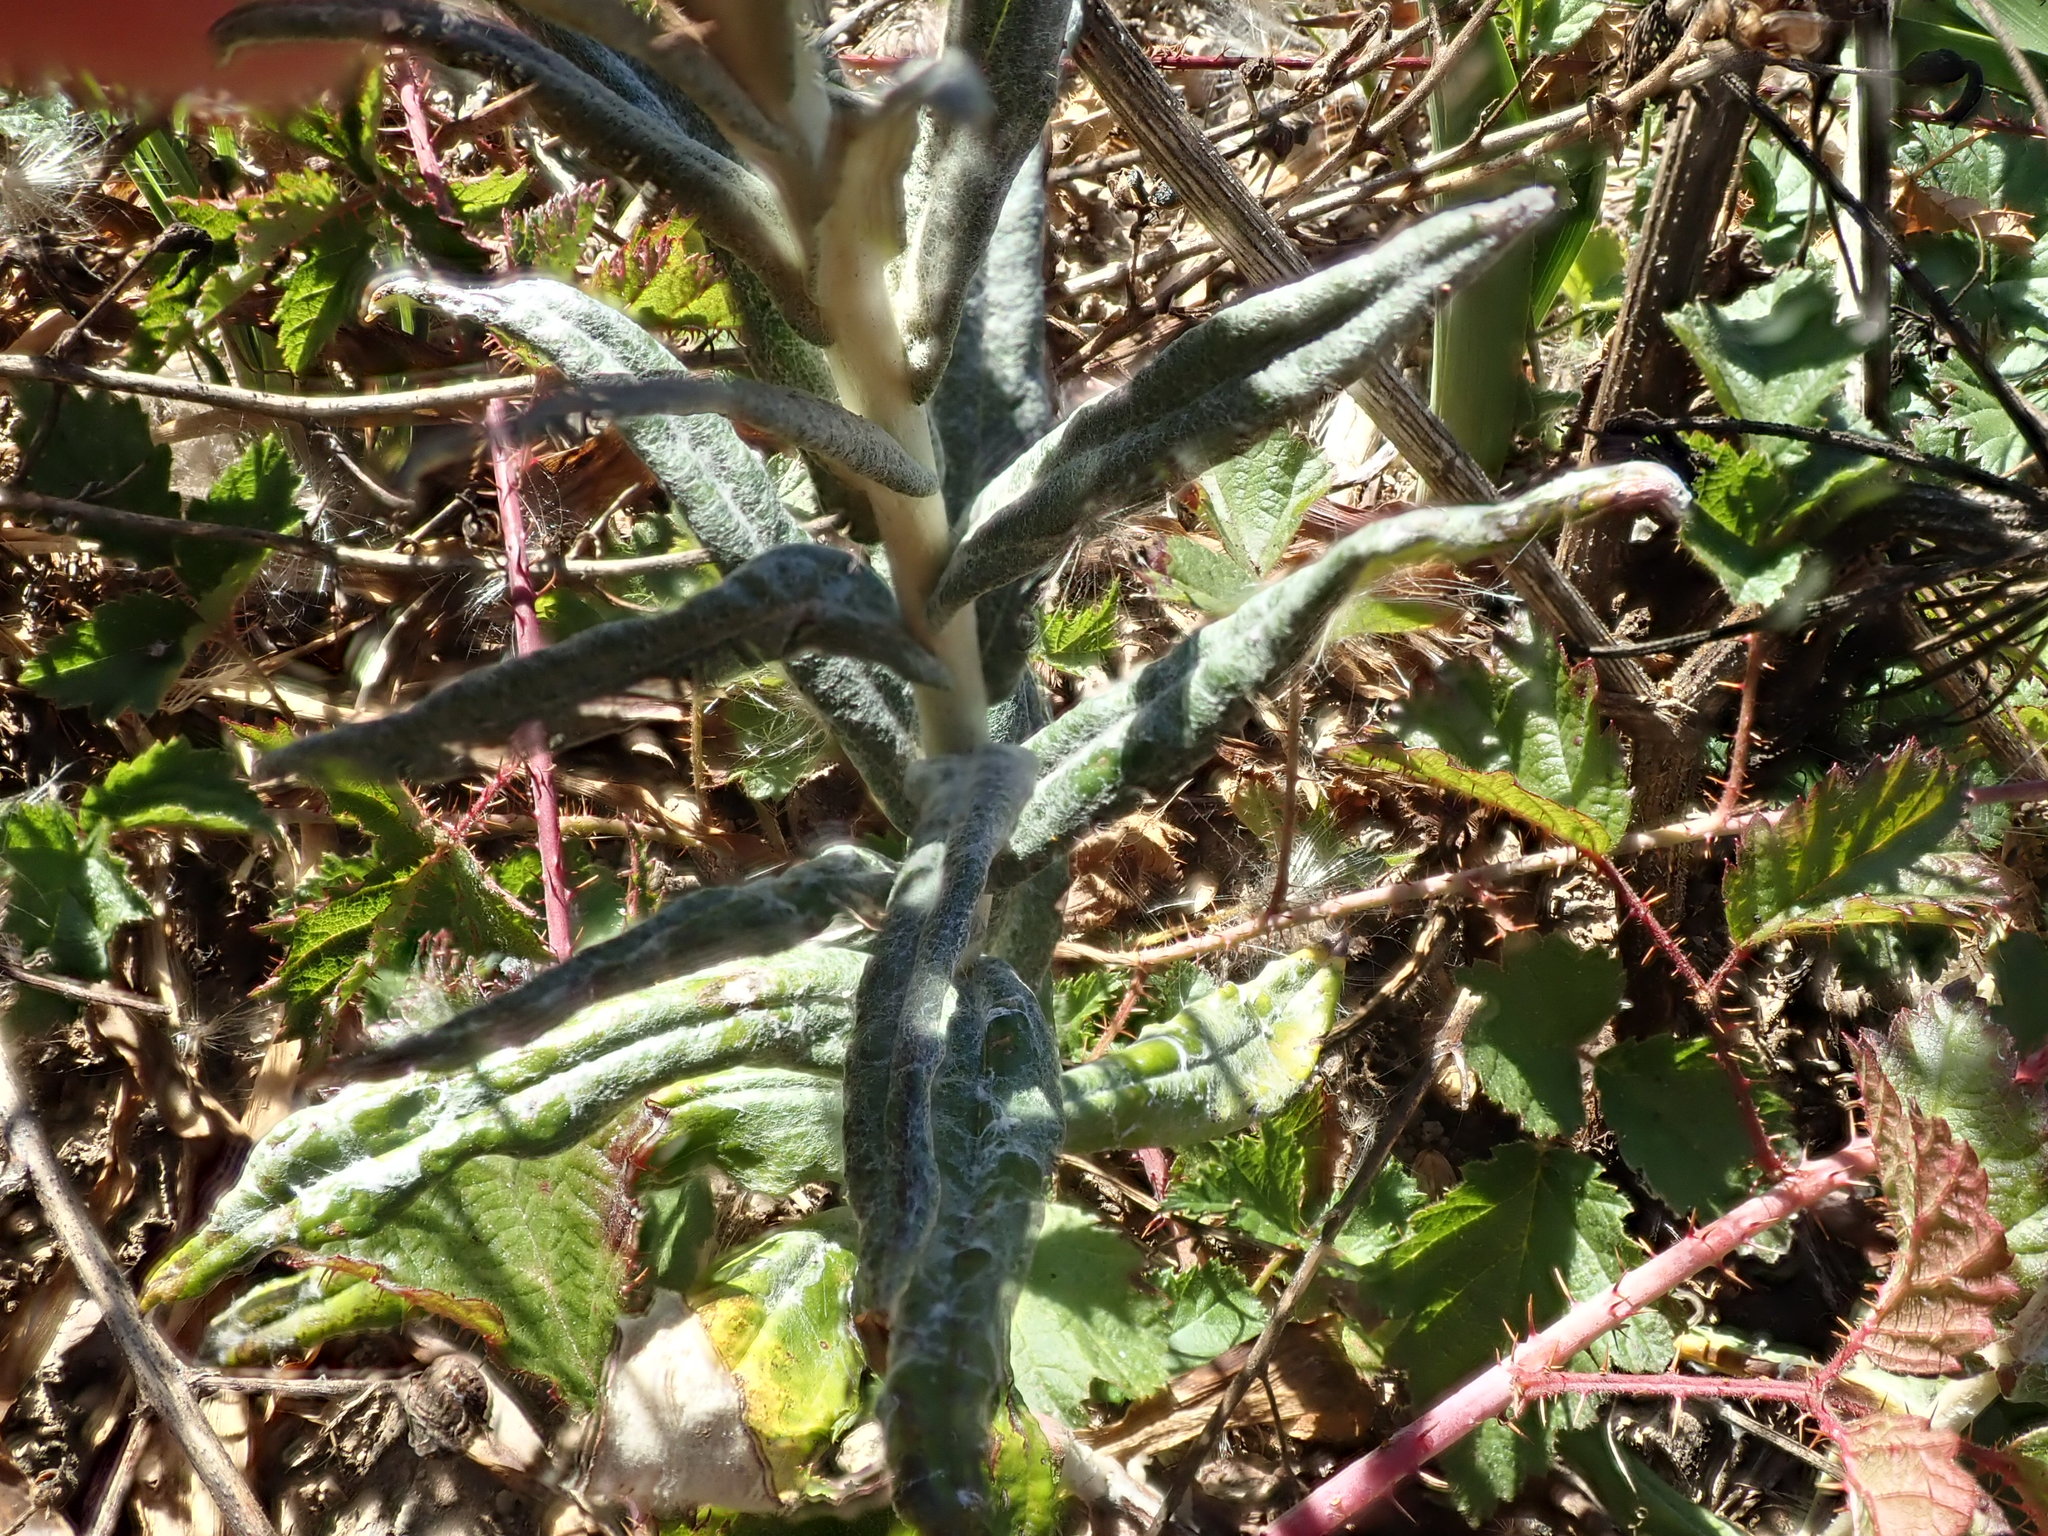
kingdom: Plantae
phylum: Tracheophyta
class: Magnoliopsida
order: Asterales
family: Asteraceae
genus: Anaphalis
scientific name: Anaphalis margaritacea
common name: Pearly everlasting
